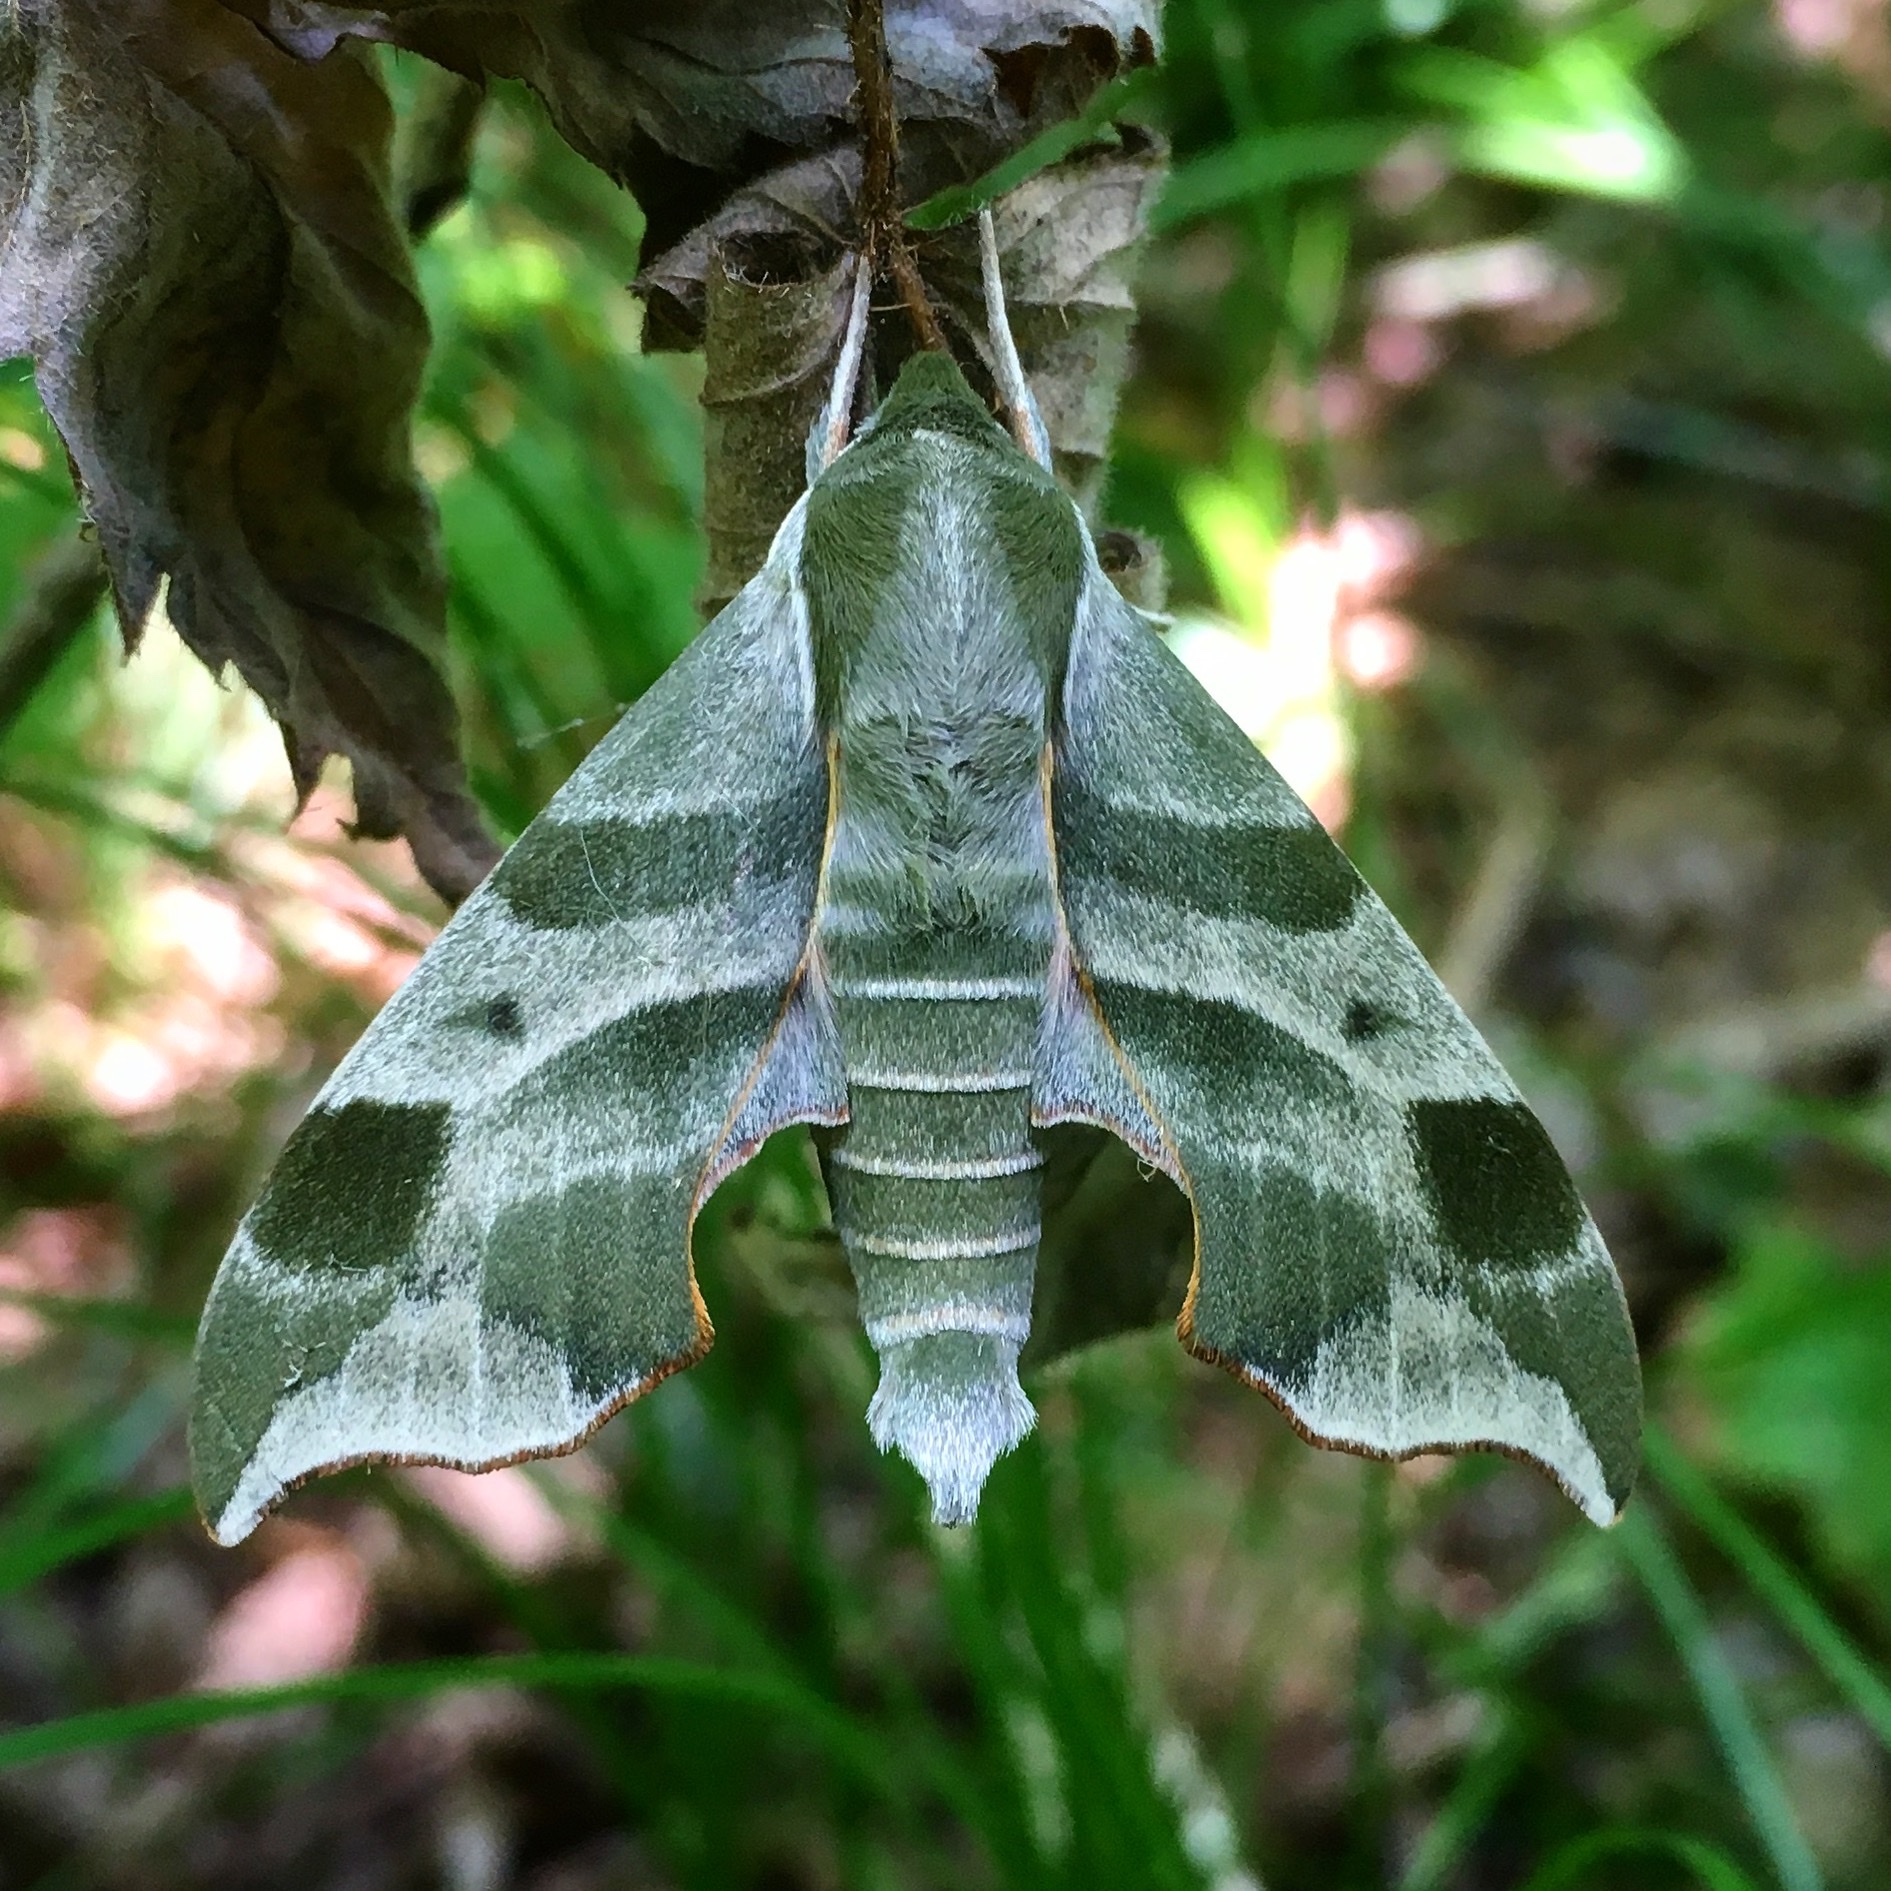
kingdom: Animalia
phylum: Arthropoda
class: Insecta
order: Lepidoptera
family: Sphingidae
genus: Darapsa
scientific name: Darapsa myron
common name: Hog sphinx
